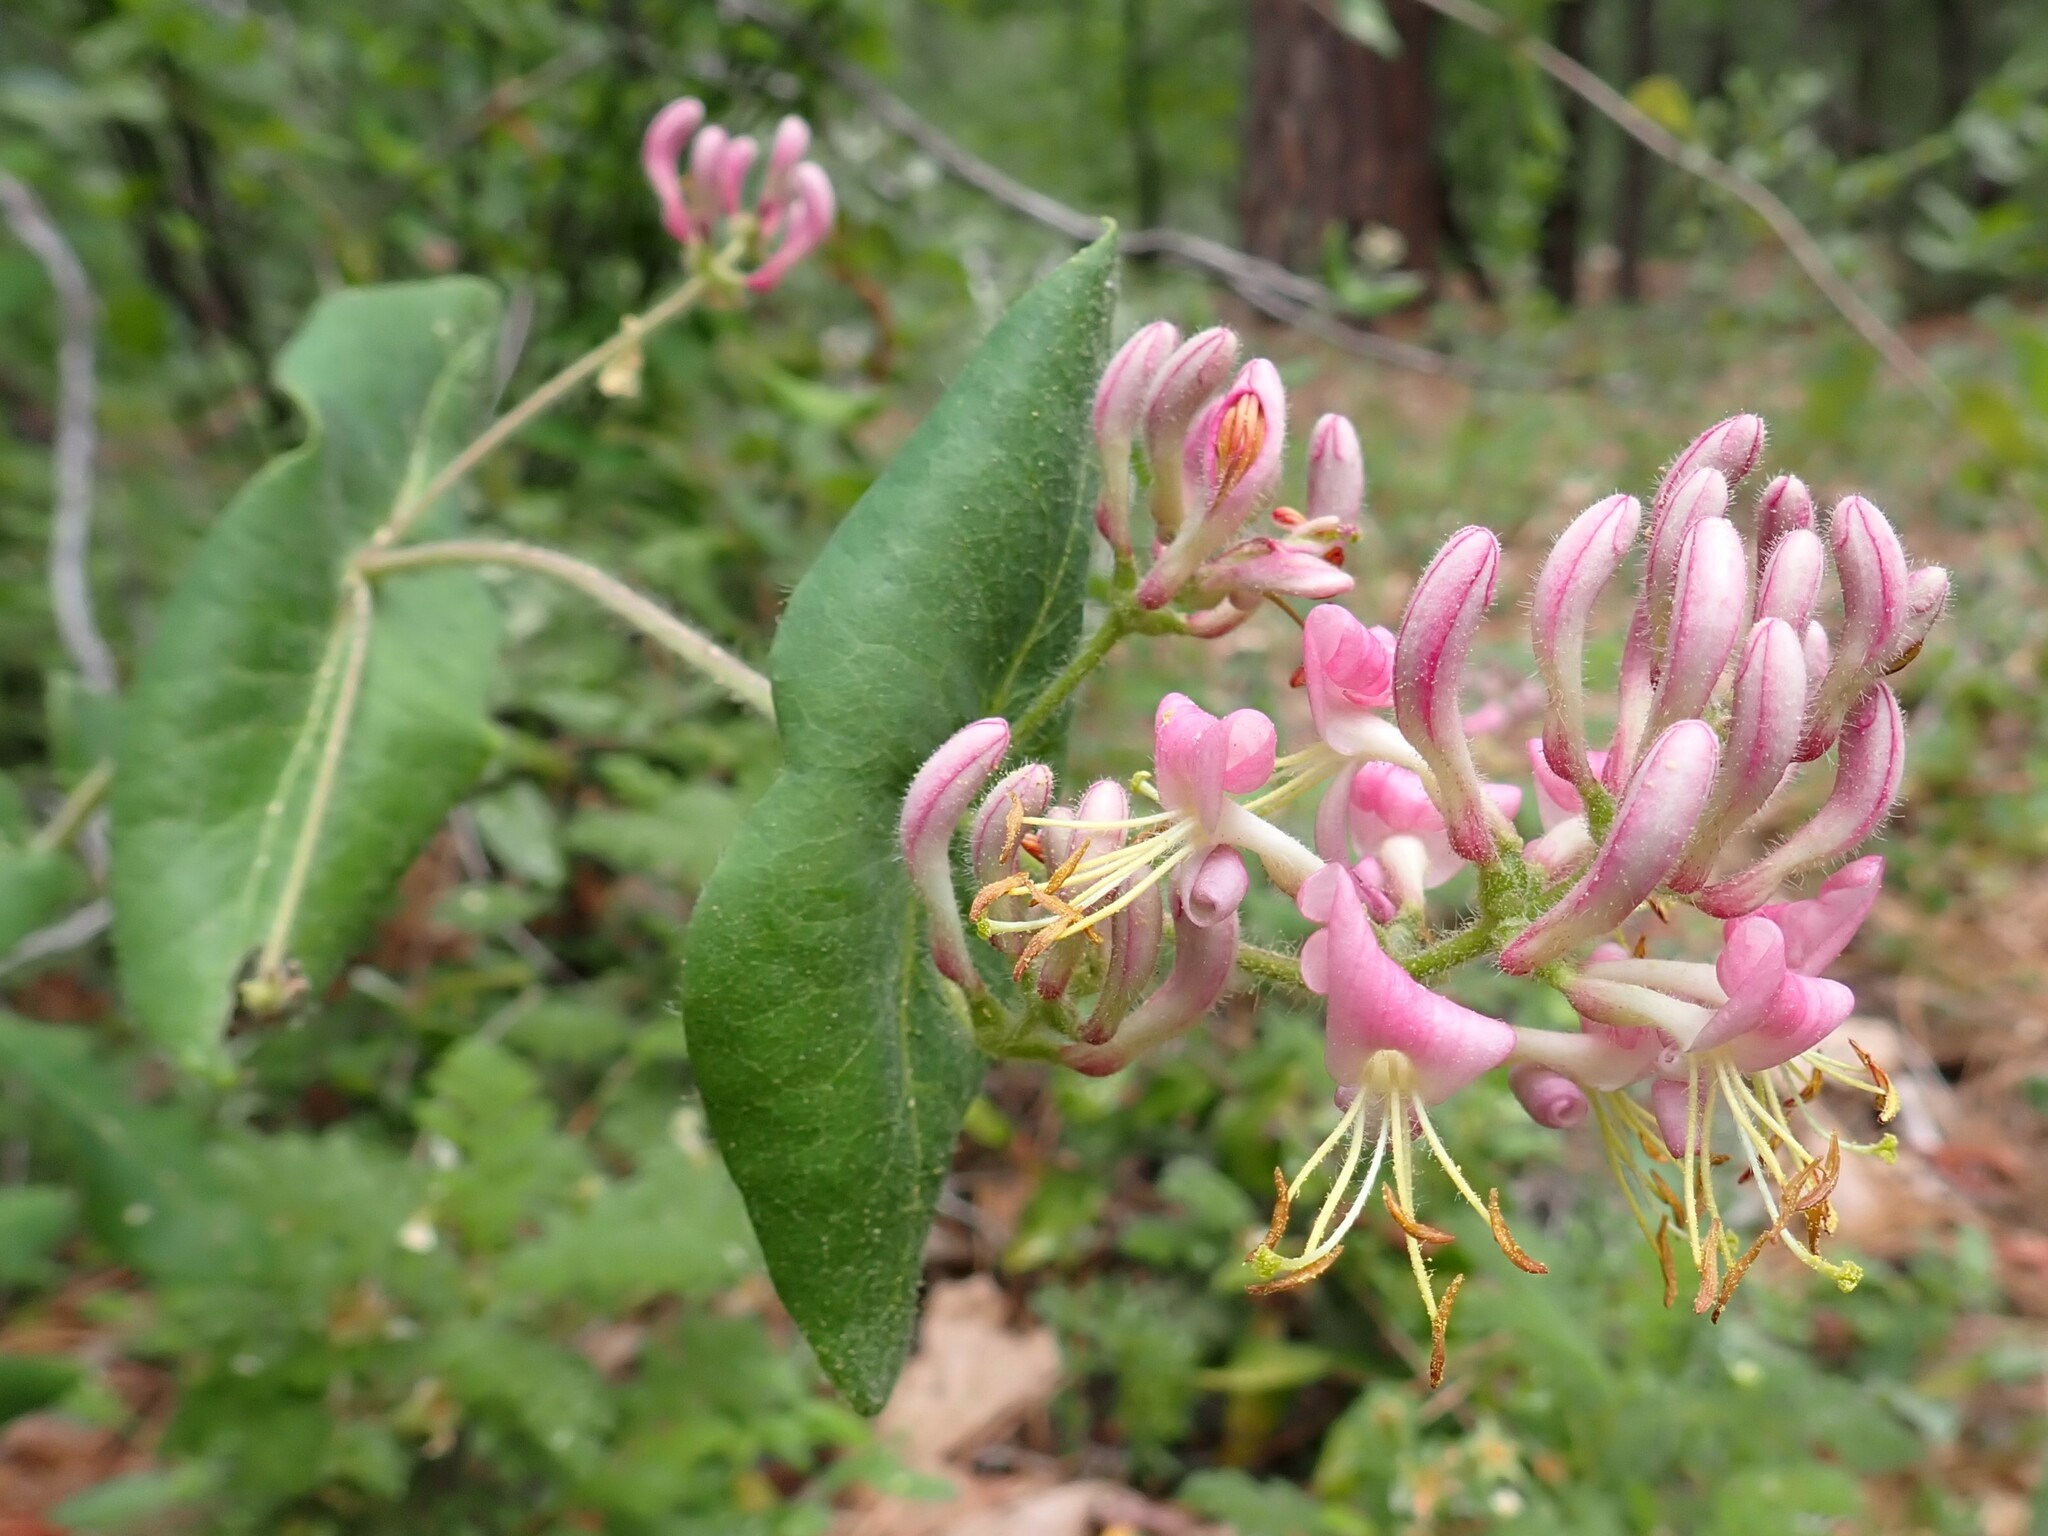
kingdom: Plantae
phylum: Tracheophyta
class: Magnoliopsida
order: Dipsacales
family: Caprifoliaceae
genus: Lonicera
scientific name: Lonicera hispidula
